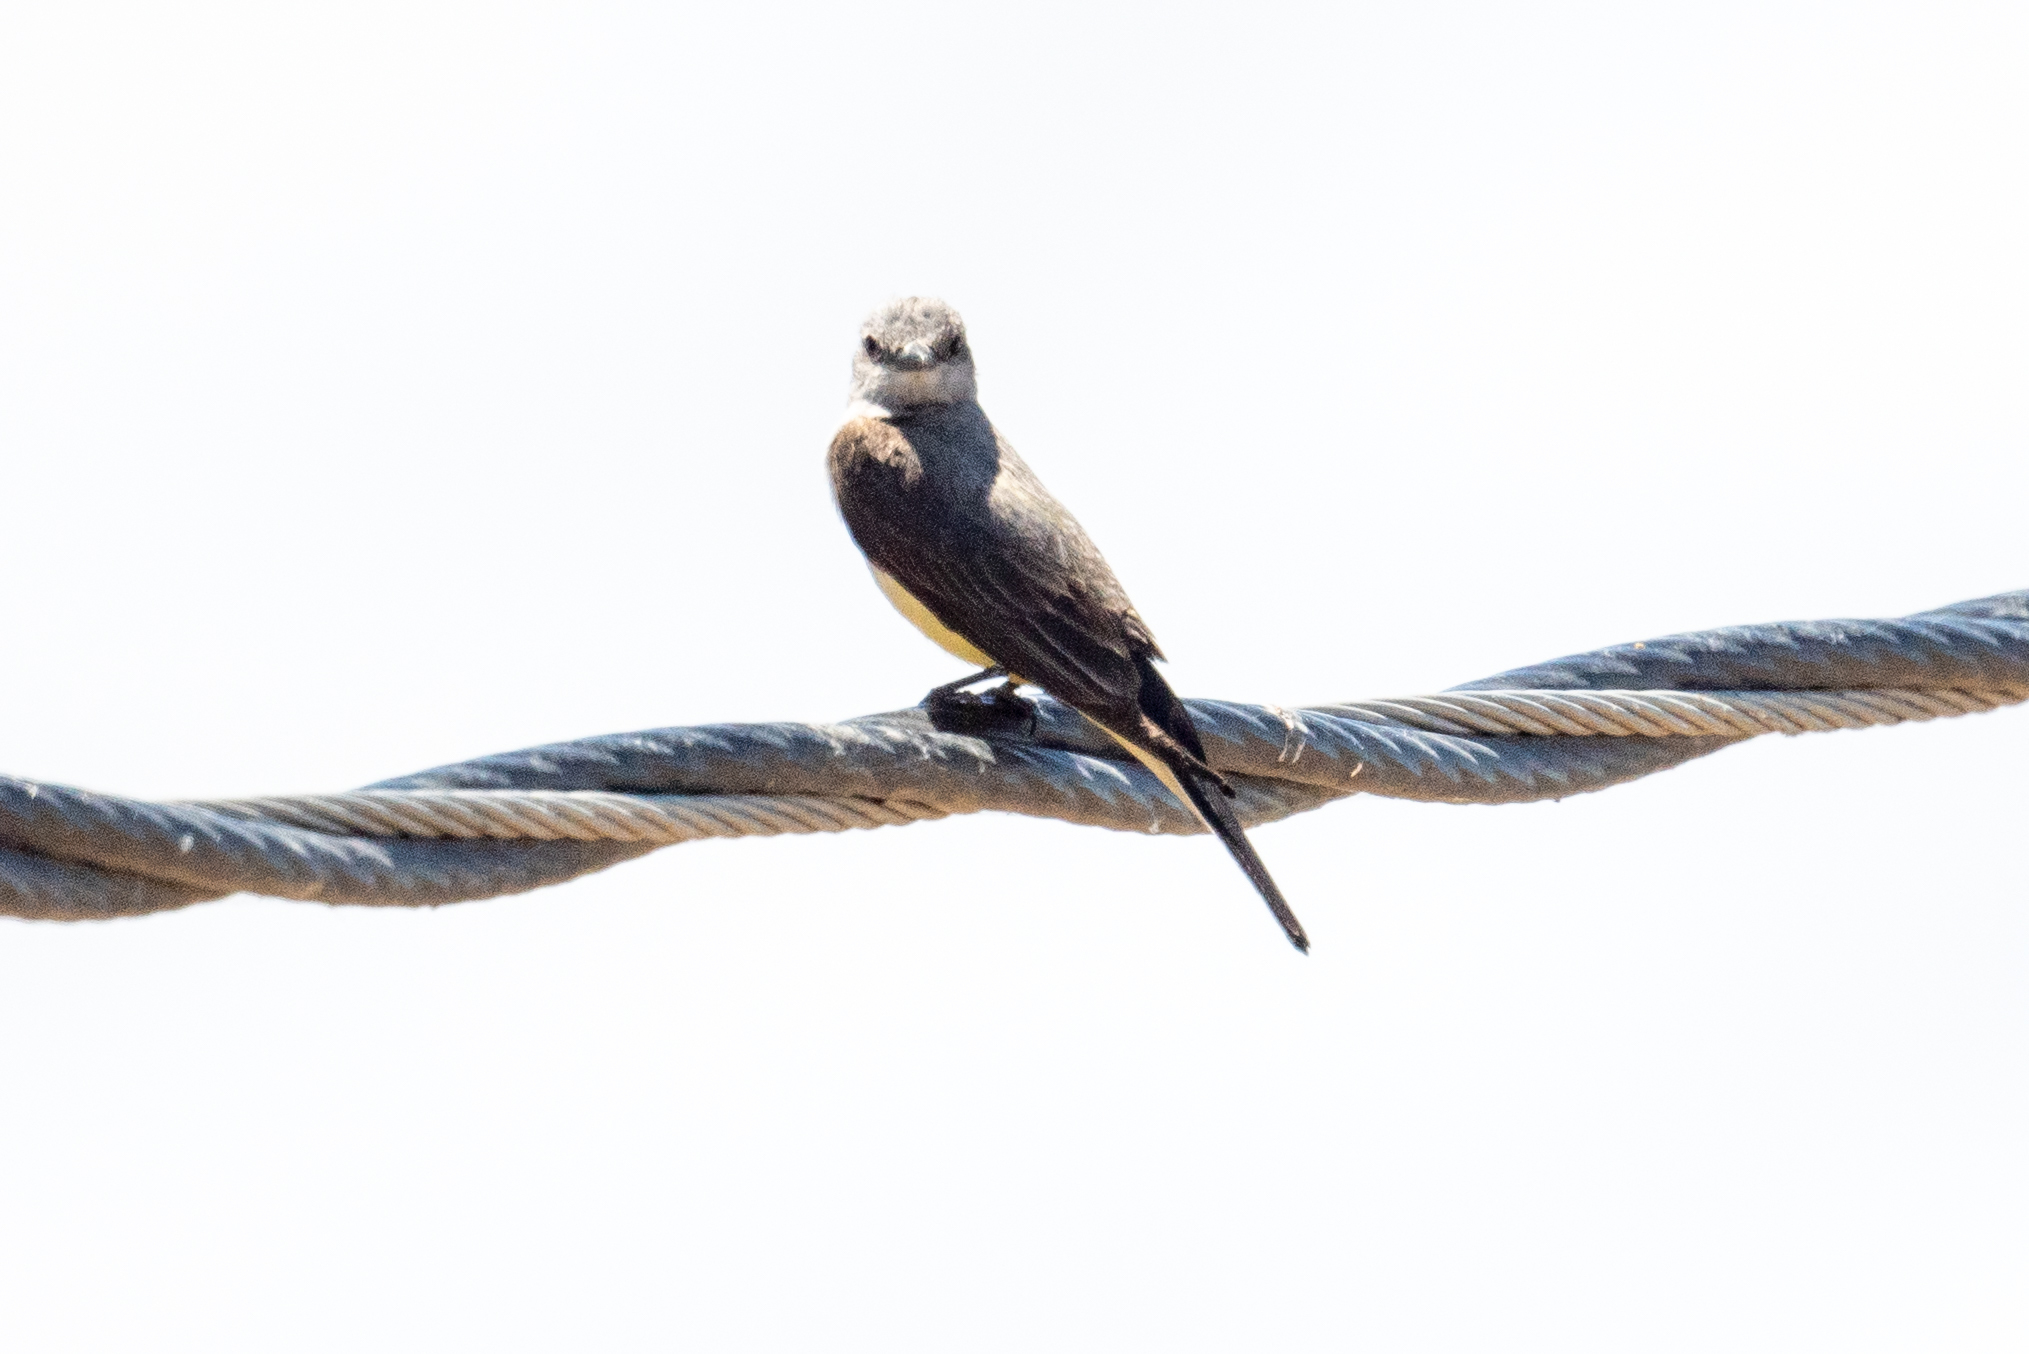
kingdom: Animalia
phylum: Chordata
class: Aves
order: Passeriformes
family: Tyrannidae
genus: Tyrannus
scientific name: Tyrannus verticalis
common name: Western kingbird
